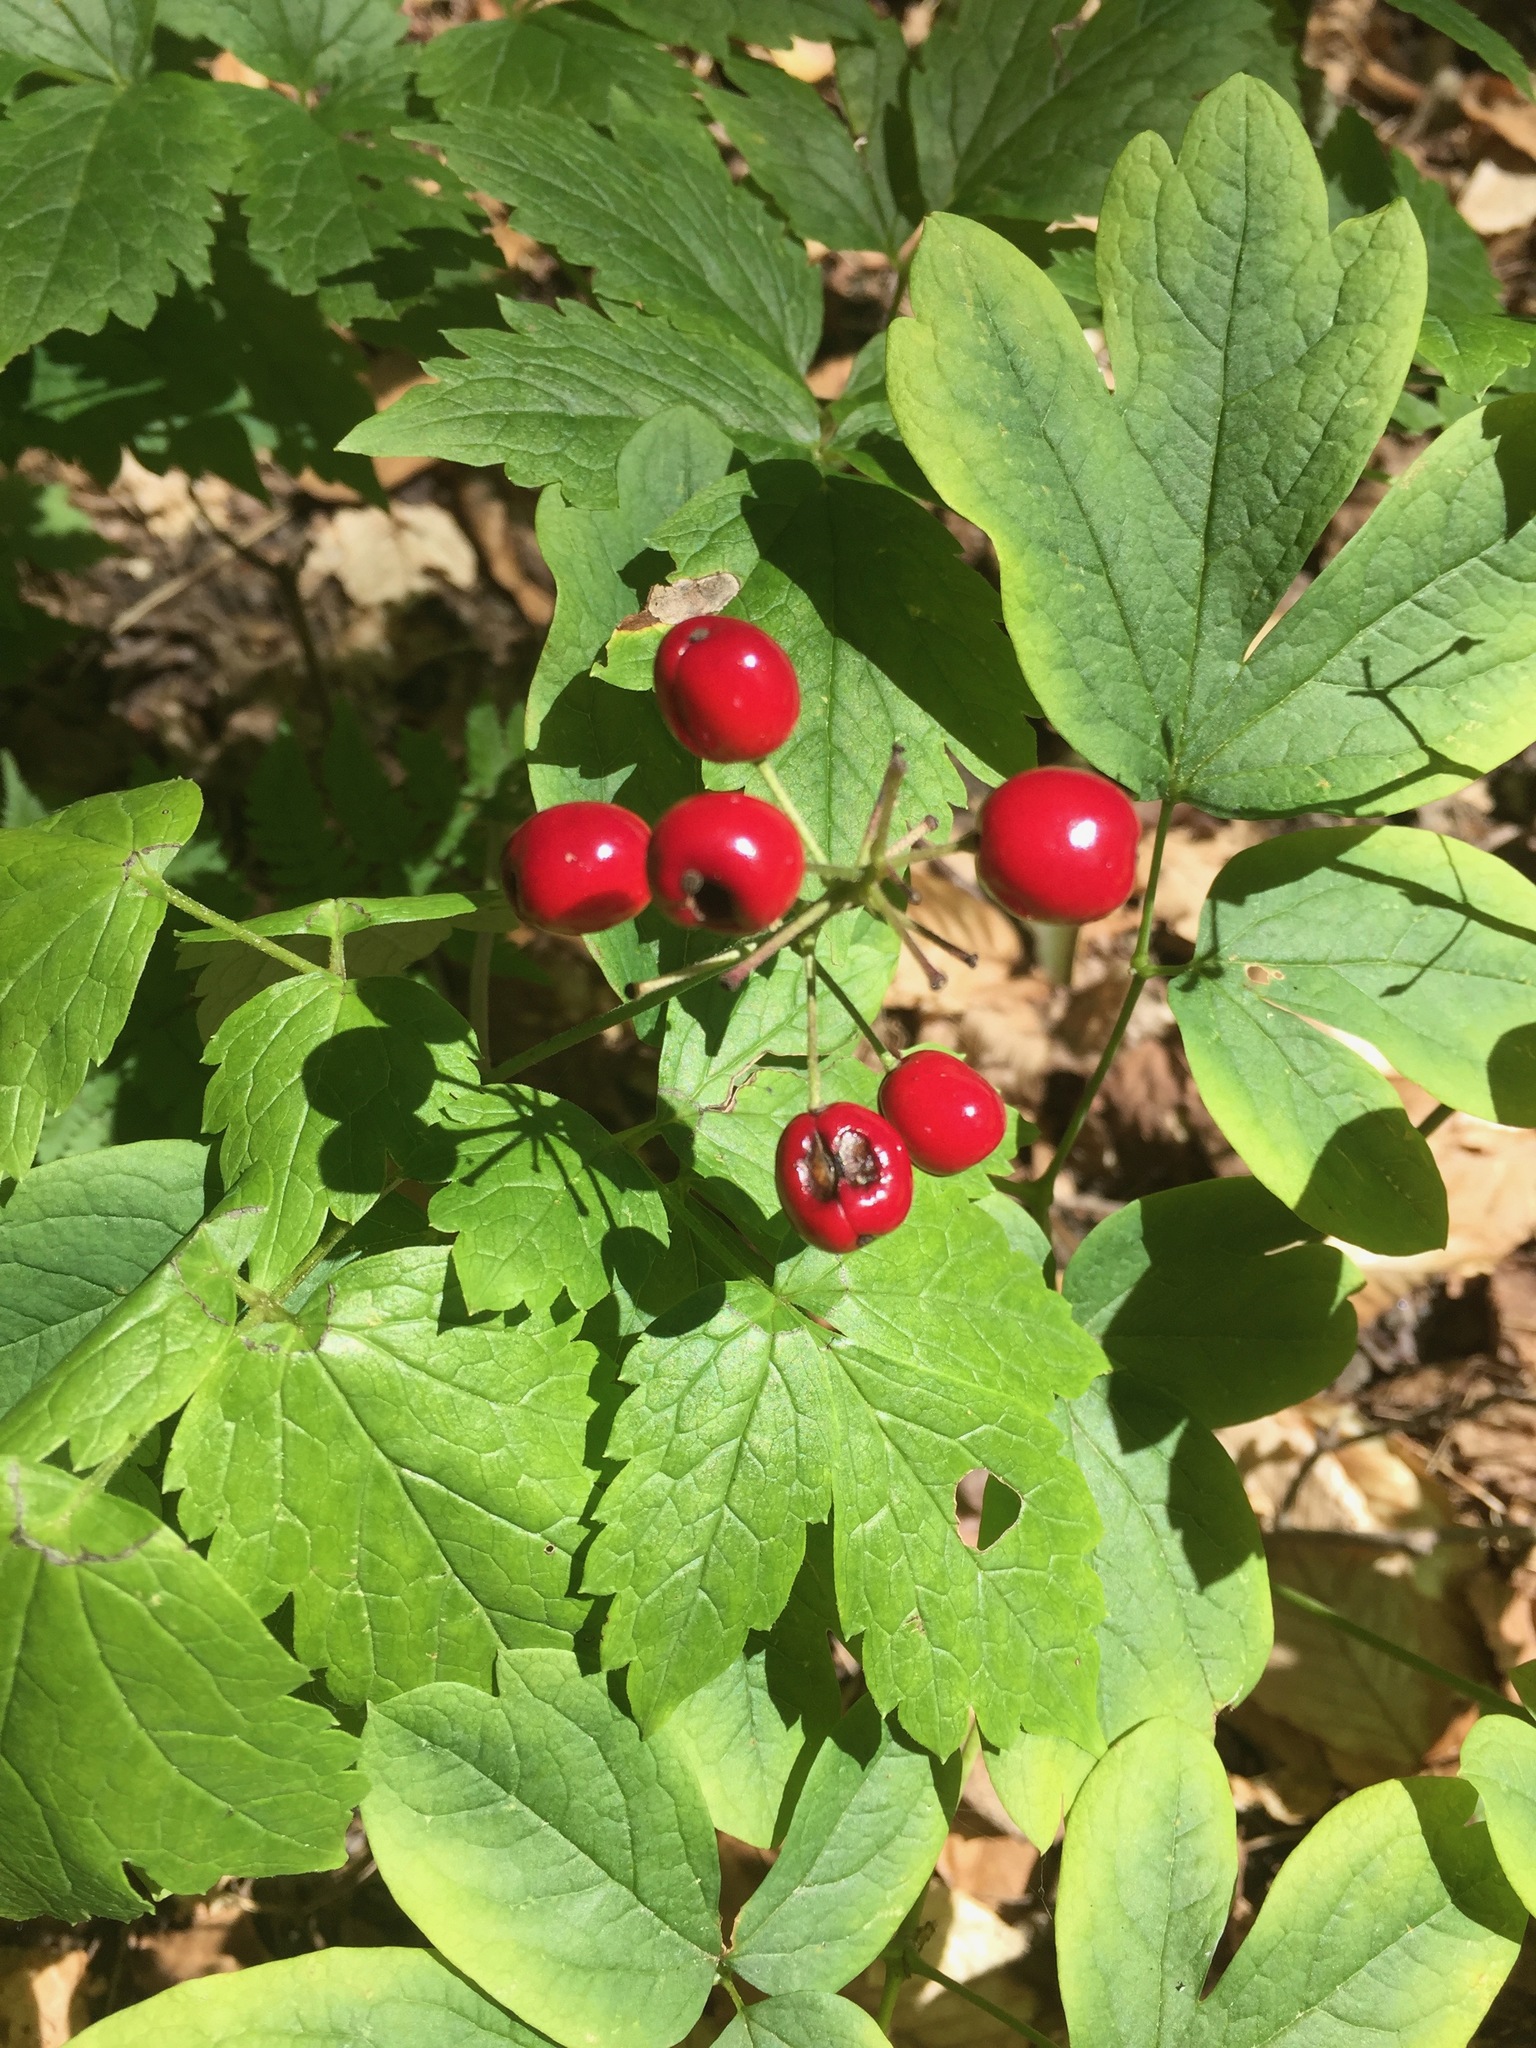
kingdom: Plantae
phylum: Tracheophyta
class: Magnoliopsida
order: Ranunculales
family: Ranunculaceae
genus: Actaea
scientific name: Actaea rubra
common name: Red baneberry
